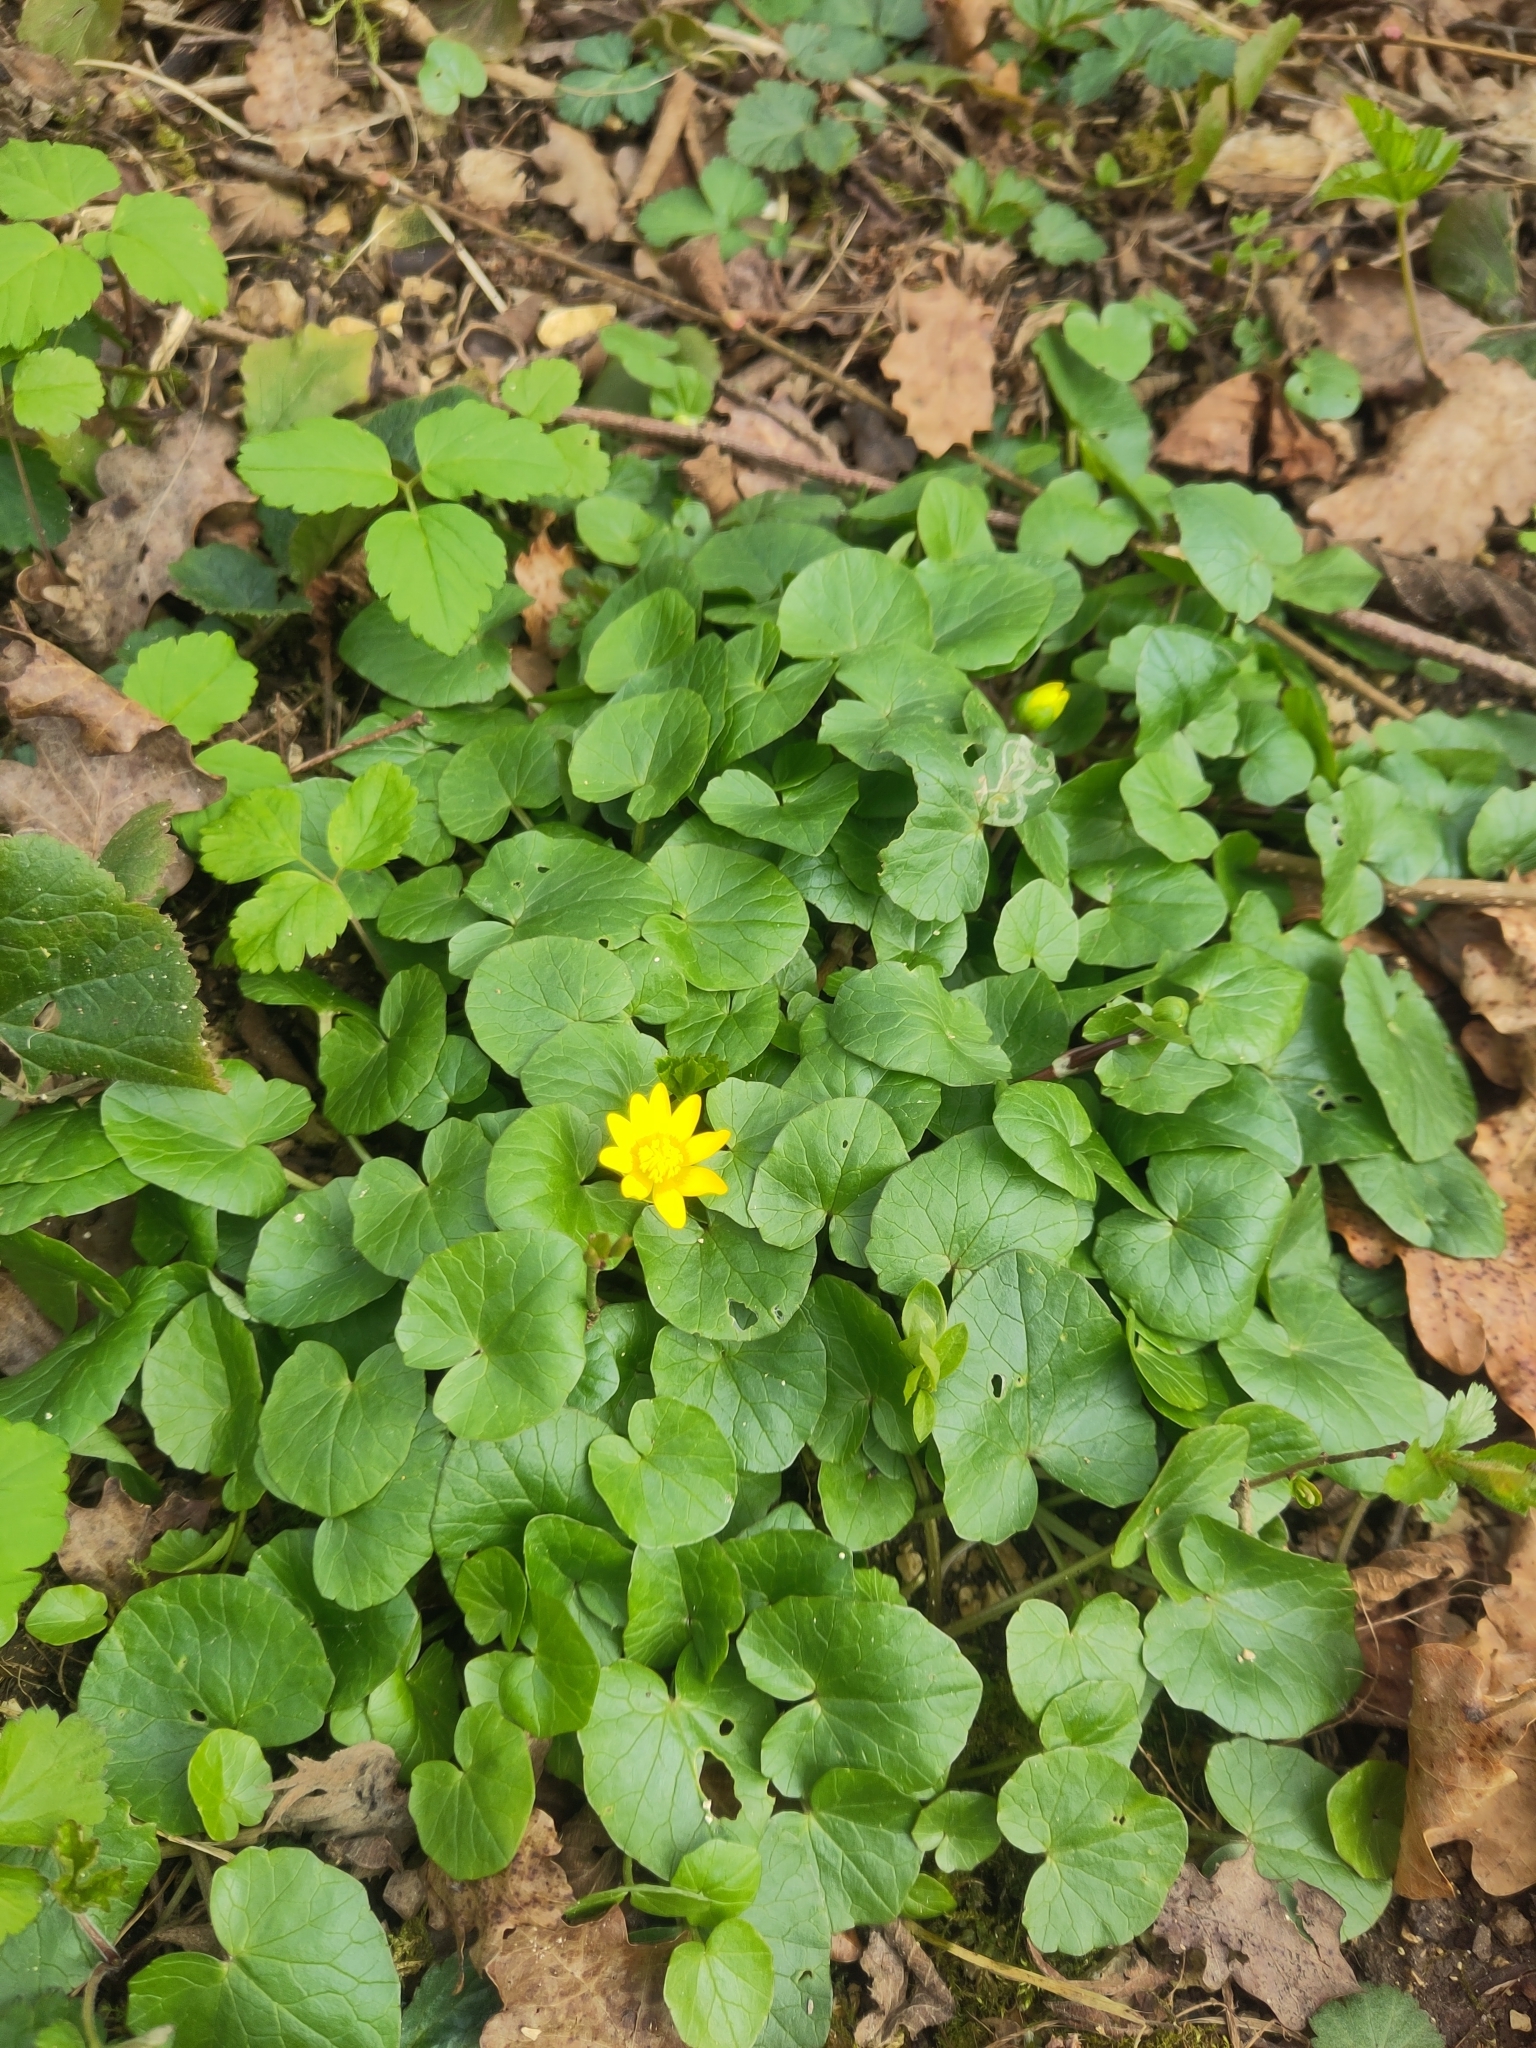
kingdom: Plantae
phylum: Tracheophyta
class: Magnoliopsida
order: Ranunculales
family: Ranunculaceae
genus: Ficaria
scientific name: Ficaria verna
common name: Lesser celandine
